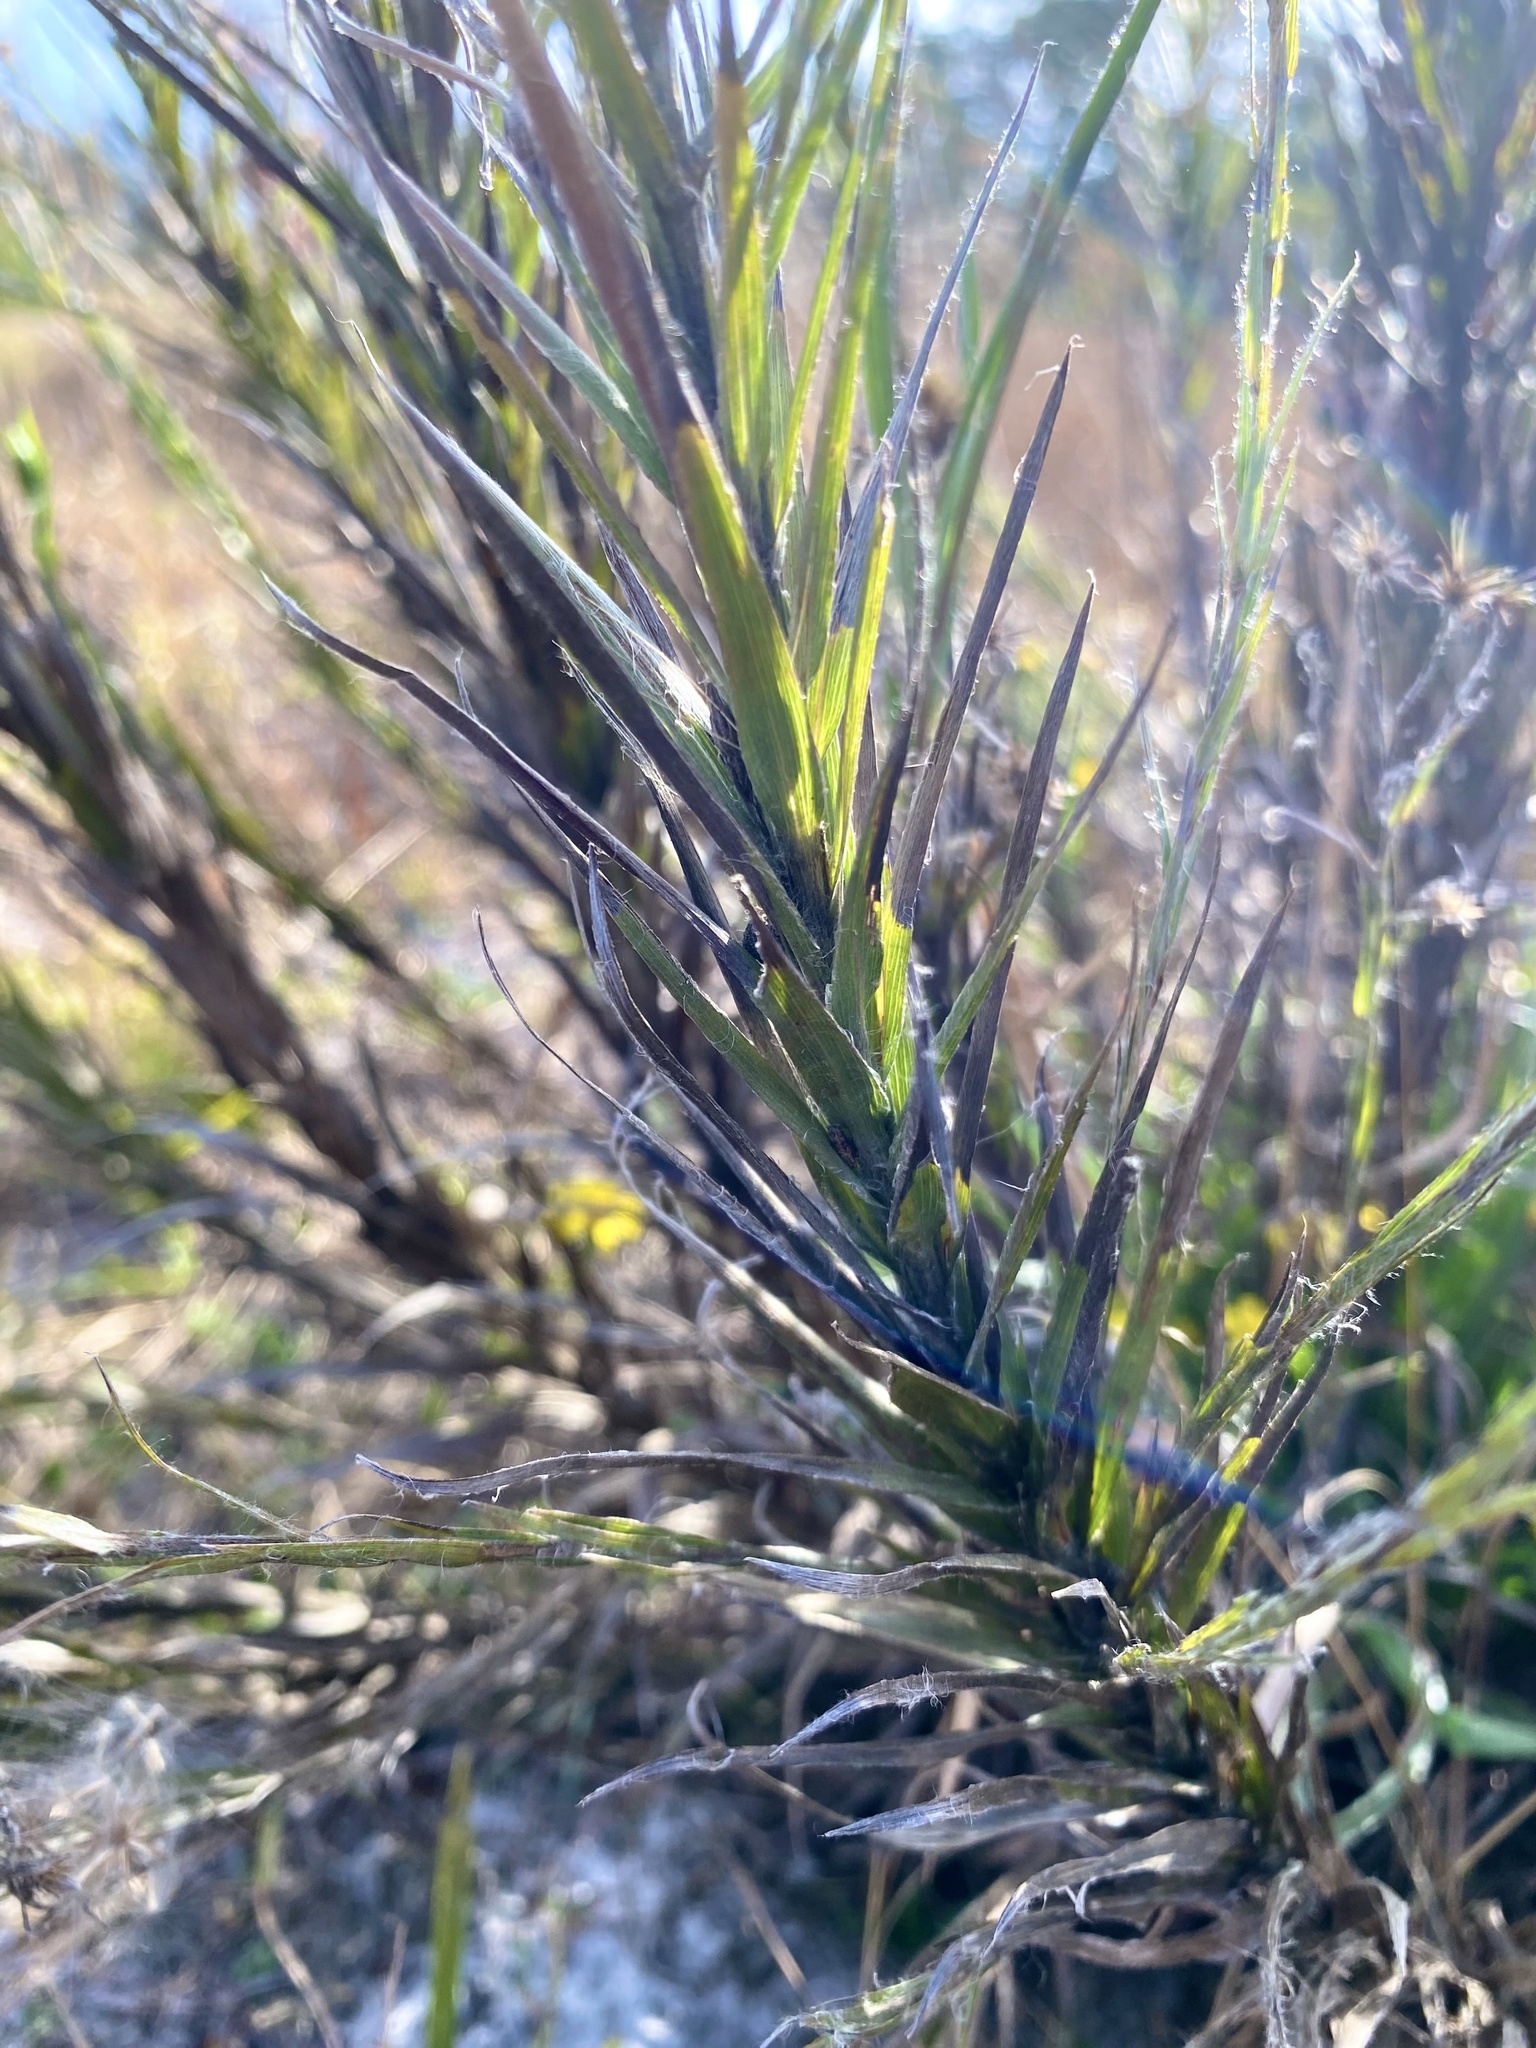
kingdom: Plantae
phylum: Tracheophyta
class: Magnoliopsida
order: Asterales
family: Asteraceae
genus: Pityopsis
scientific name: Pityopsis aequilifolia
